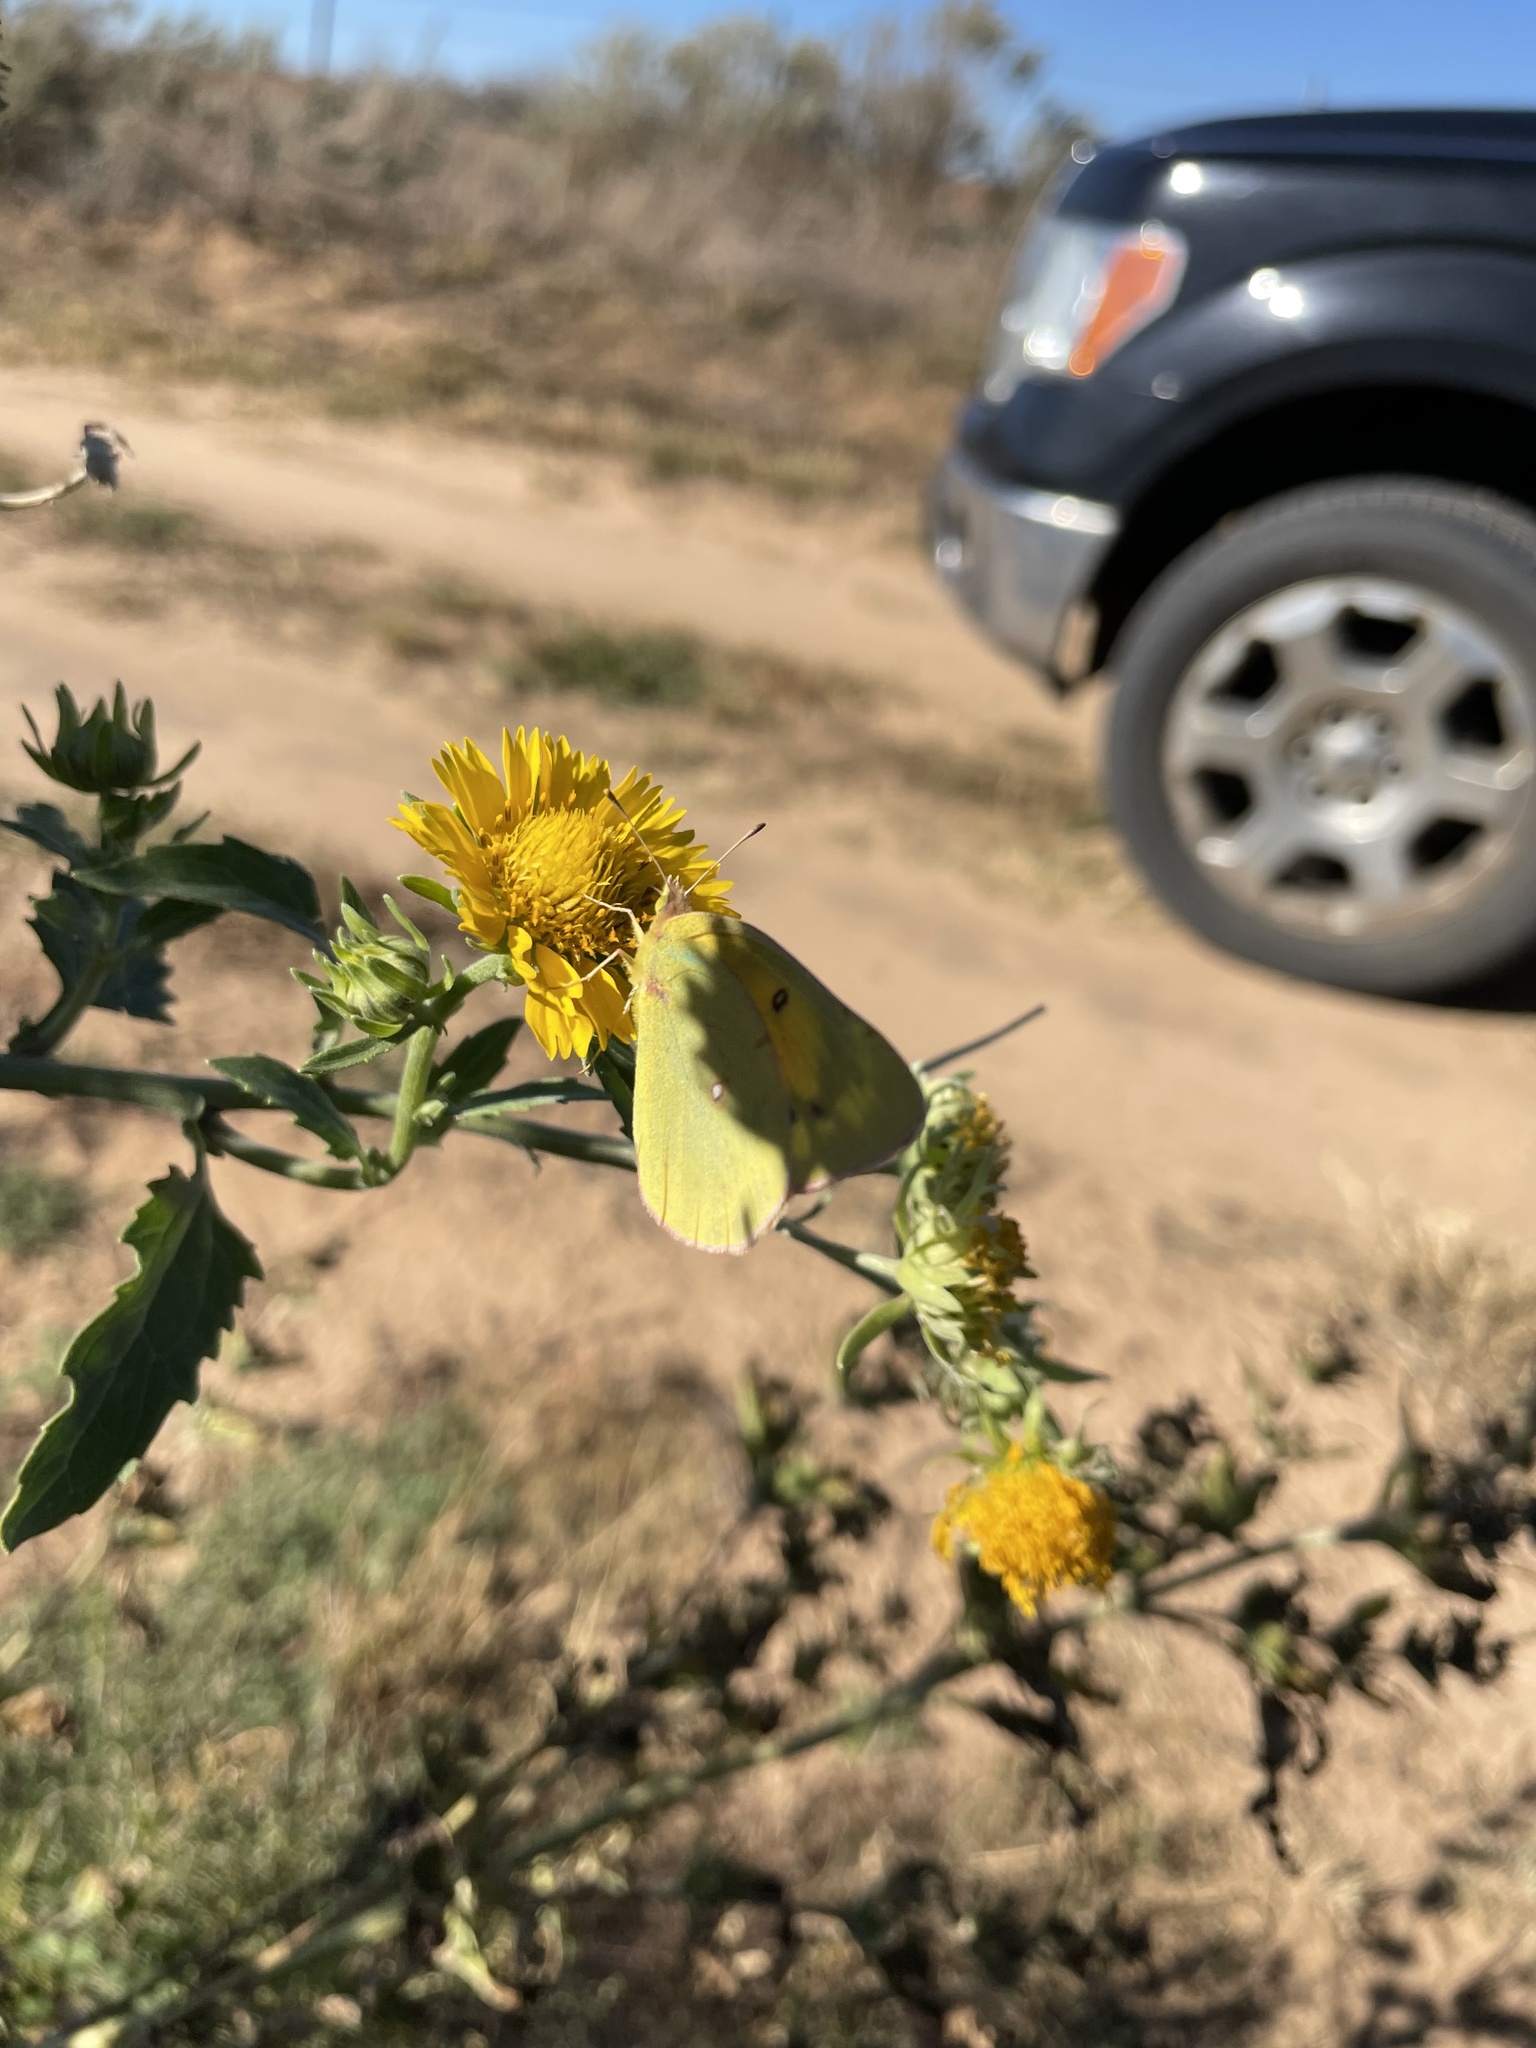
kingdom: Animalia
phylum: Arthropoda
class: Insecta
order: Lepidoptera
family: Pieridae
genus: Colias
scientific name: Colias eurytheme
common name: Alfalfa butterfly
